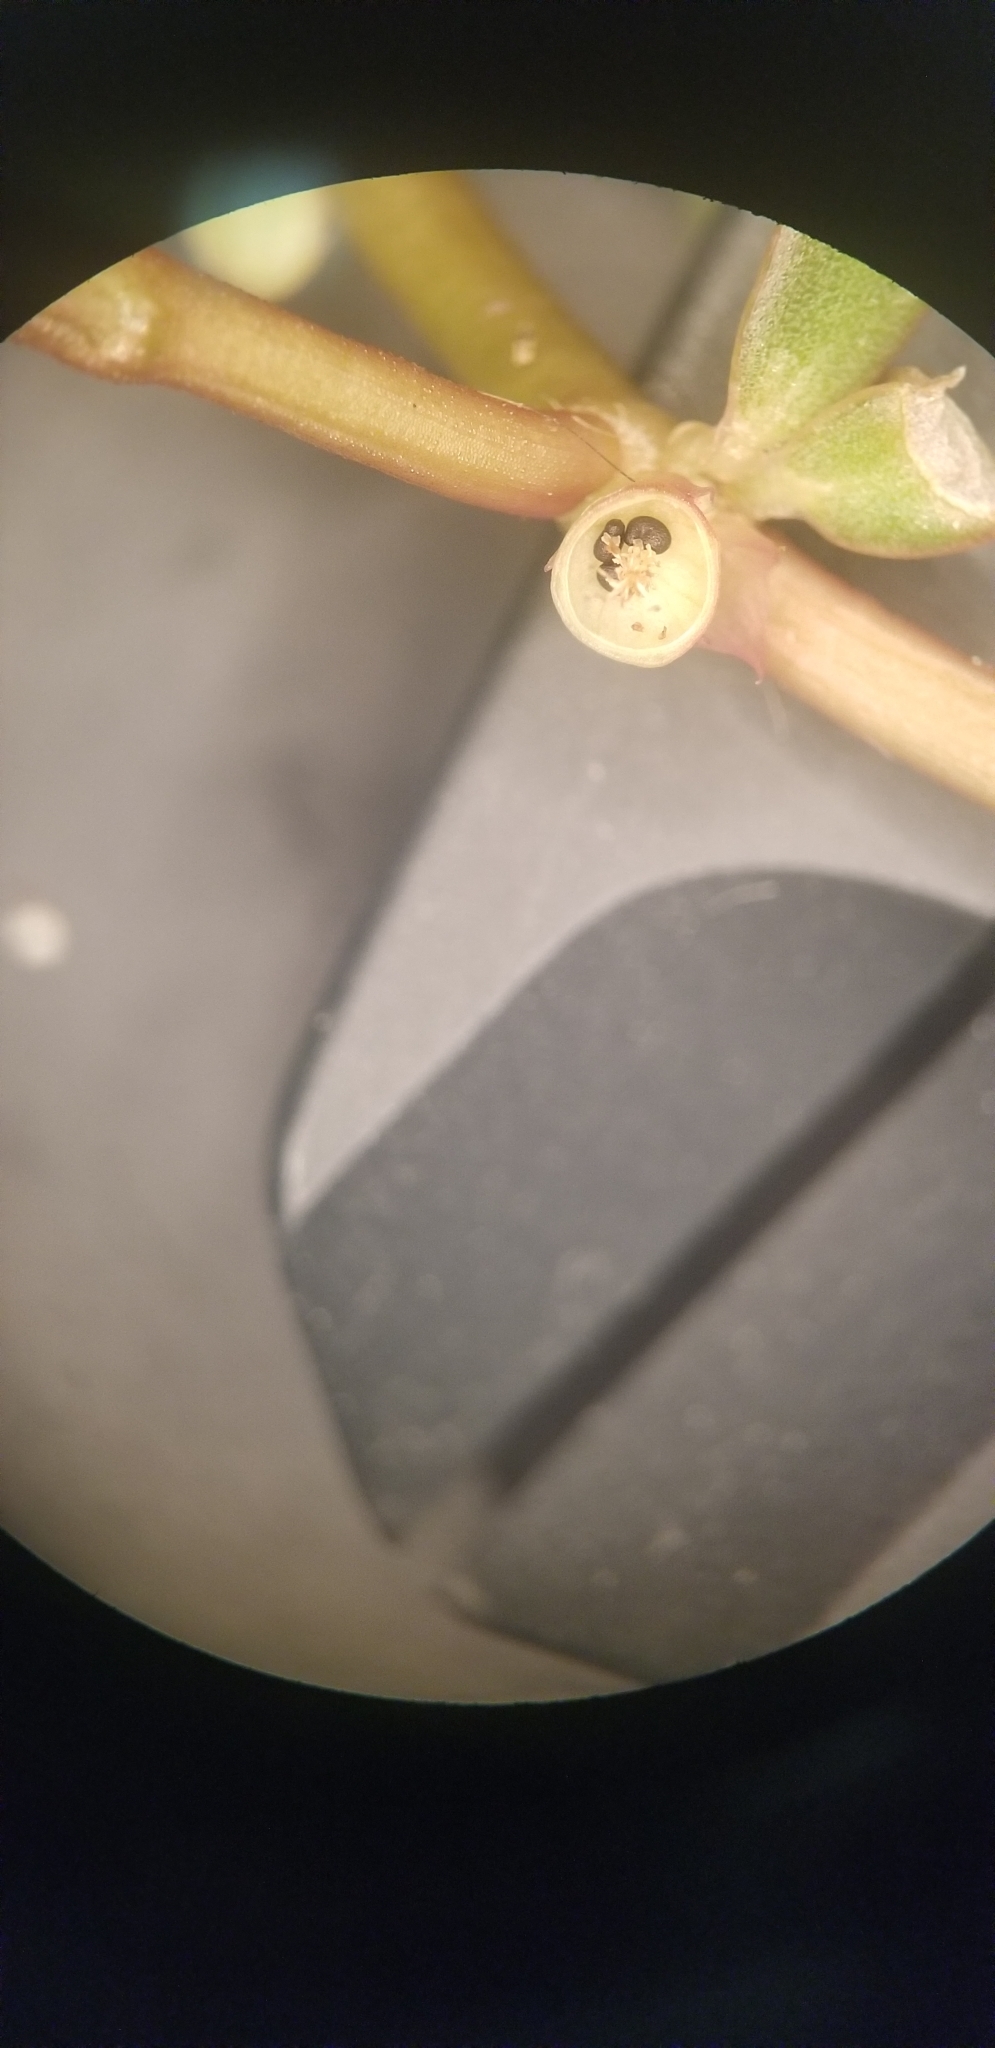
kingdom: Plantae
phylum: Tracheophyta
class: Magnoliopsida
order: Caryophyllales
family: Portulacaceae
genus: Portulaca
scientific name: Portulaca oleracea
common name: Common purslane
